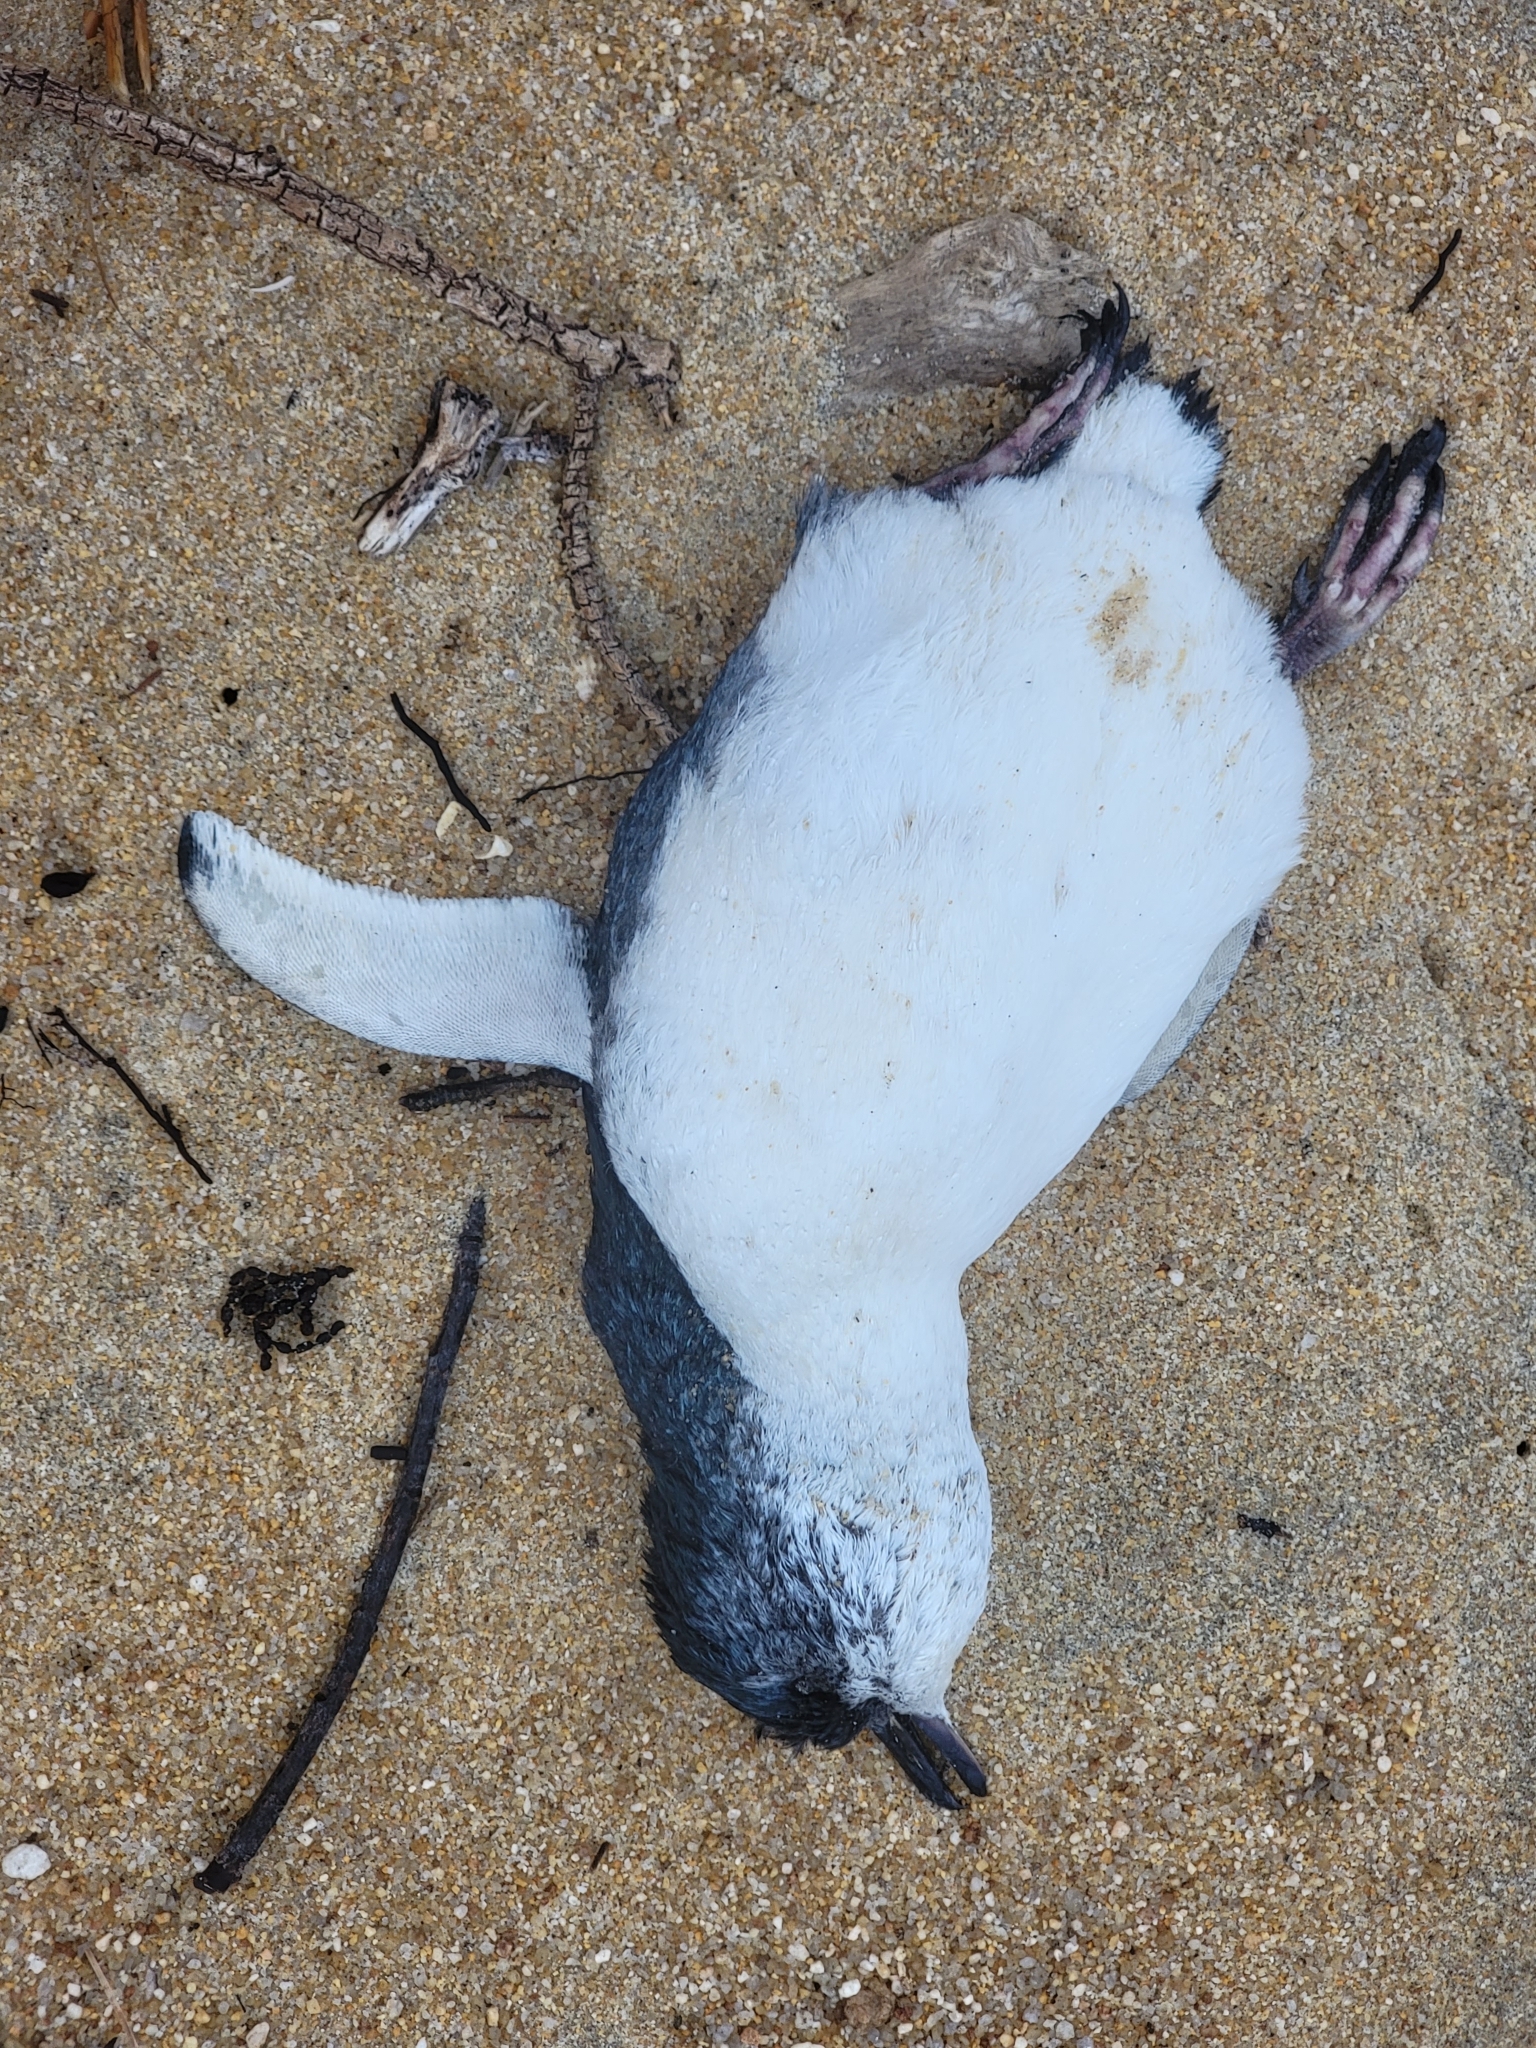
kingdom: Animalia
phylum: Chordata
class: Aves
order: Sphenisciformes
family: Spheniscidae
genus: Eudyptula
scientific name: Eudyptula minor
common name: Little penguin
